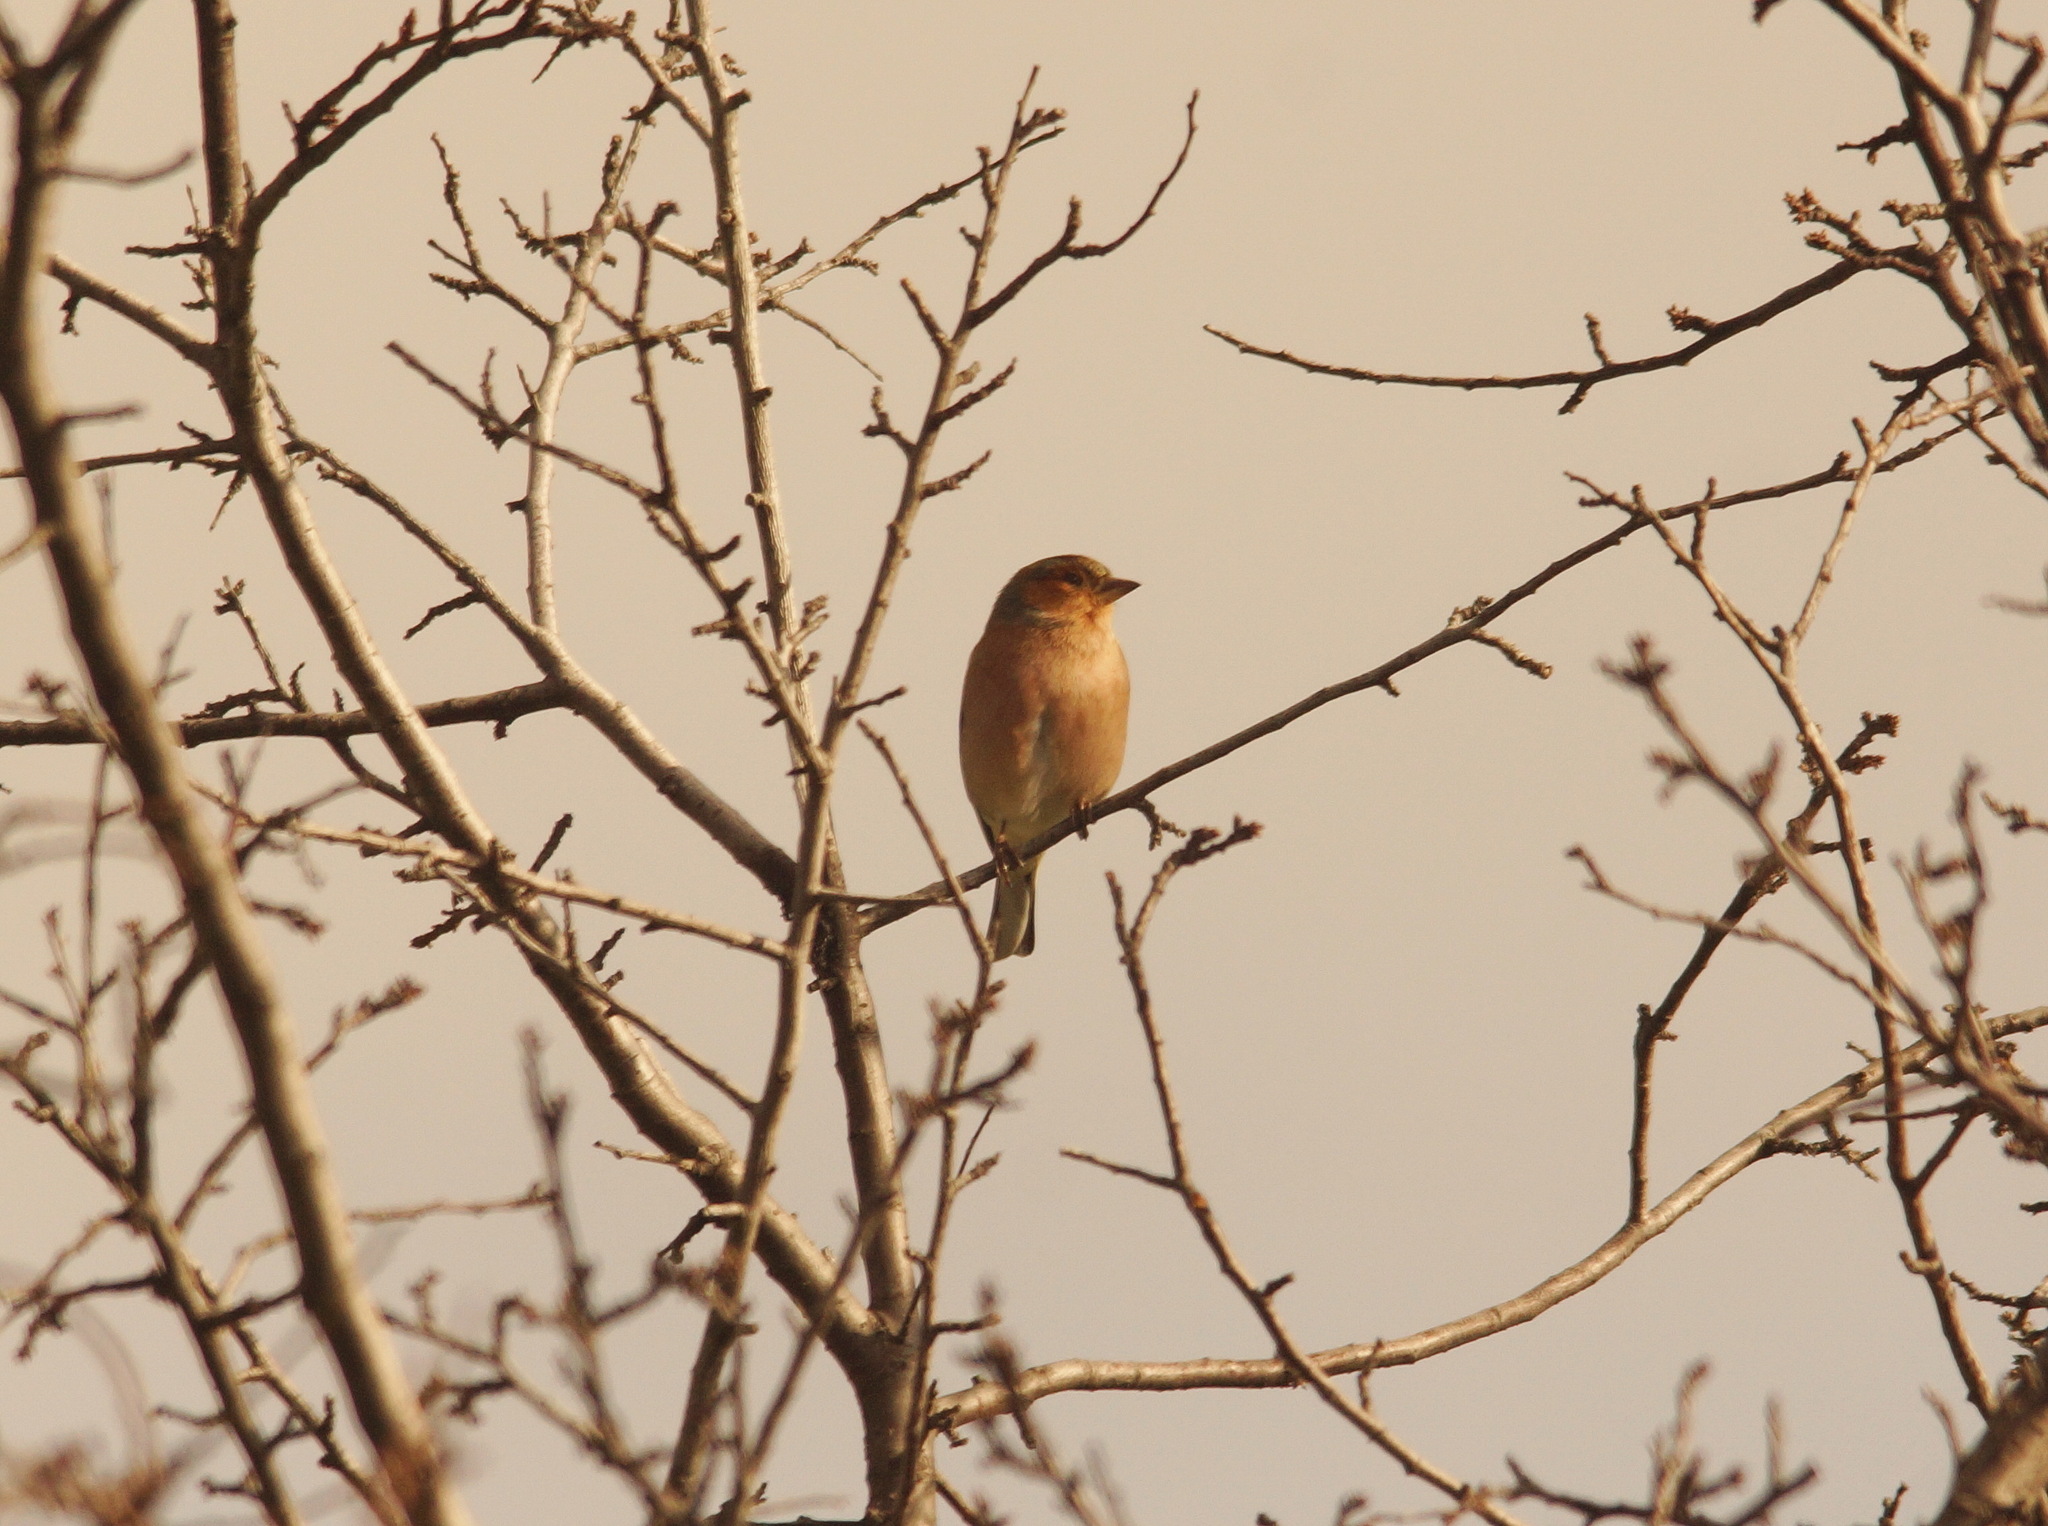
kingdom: Animalia
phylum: Chordata
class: Aves
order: Passeriformes
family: Fringillidae
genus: Fringilla
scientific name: Fringilla coelebs
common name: Common chaffinch
